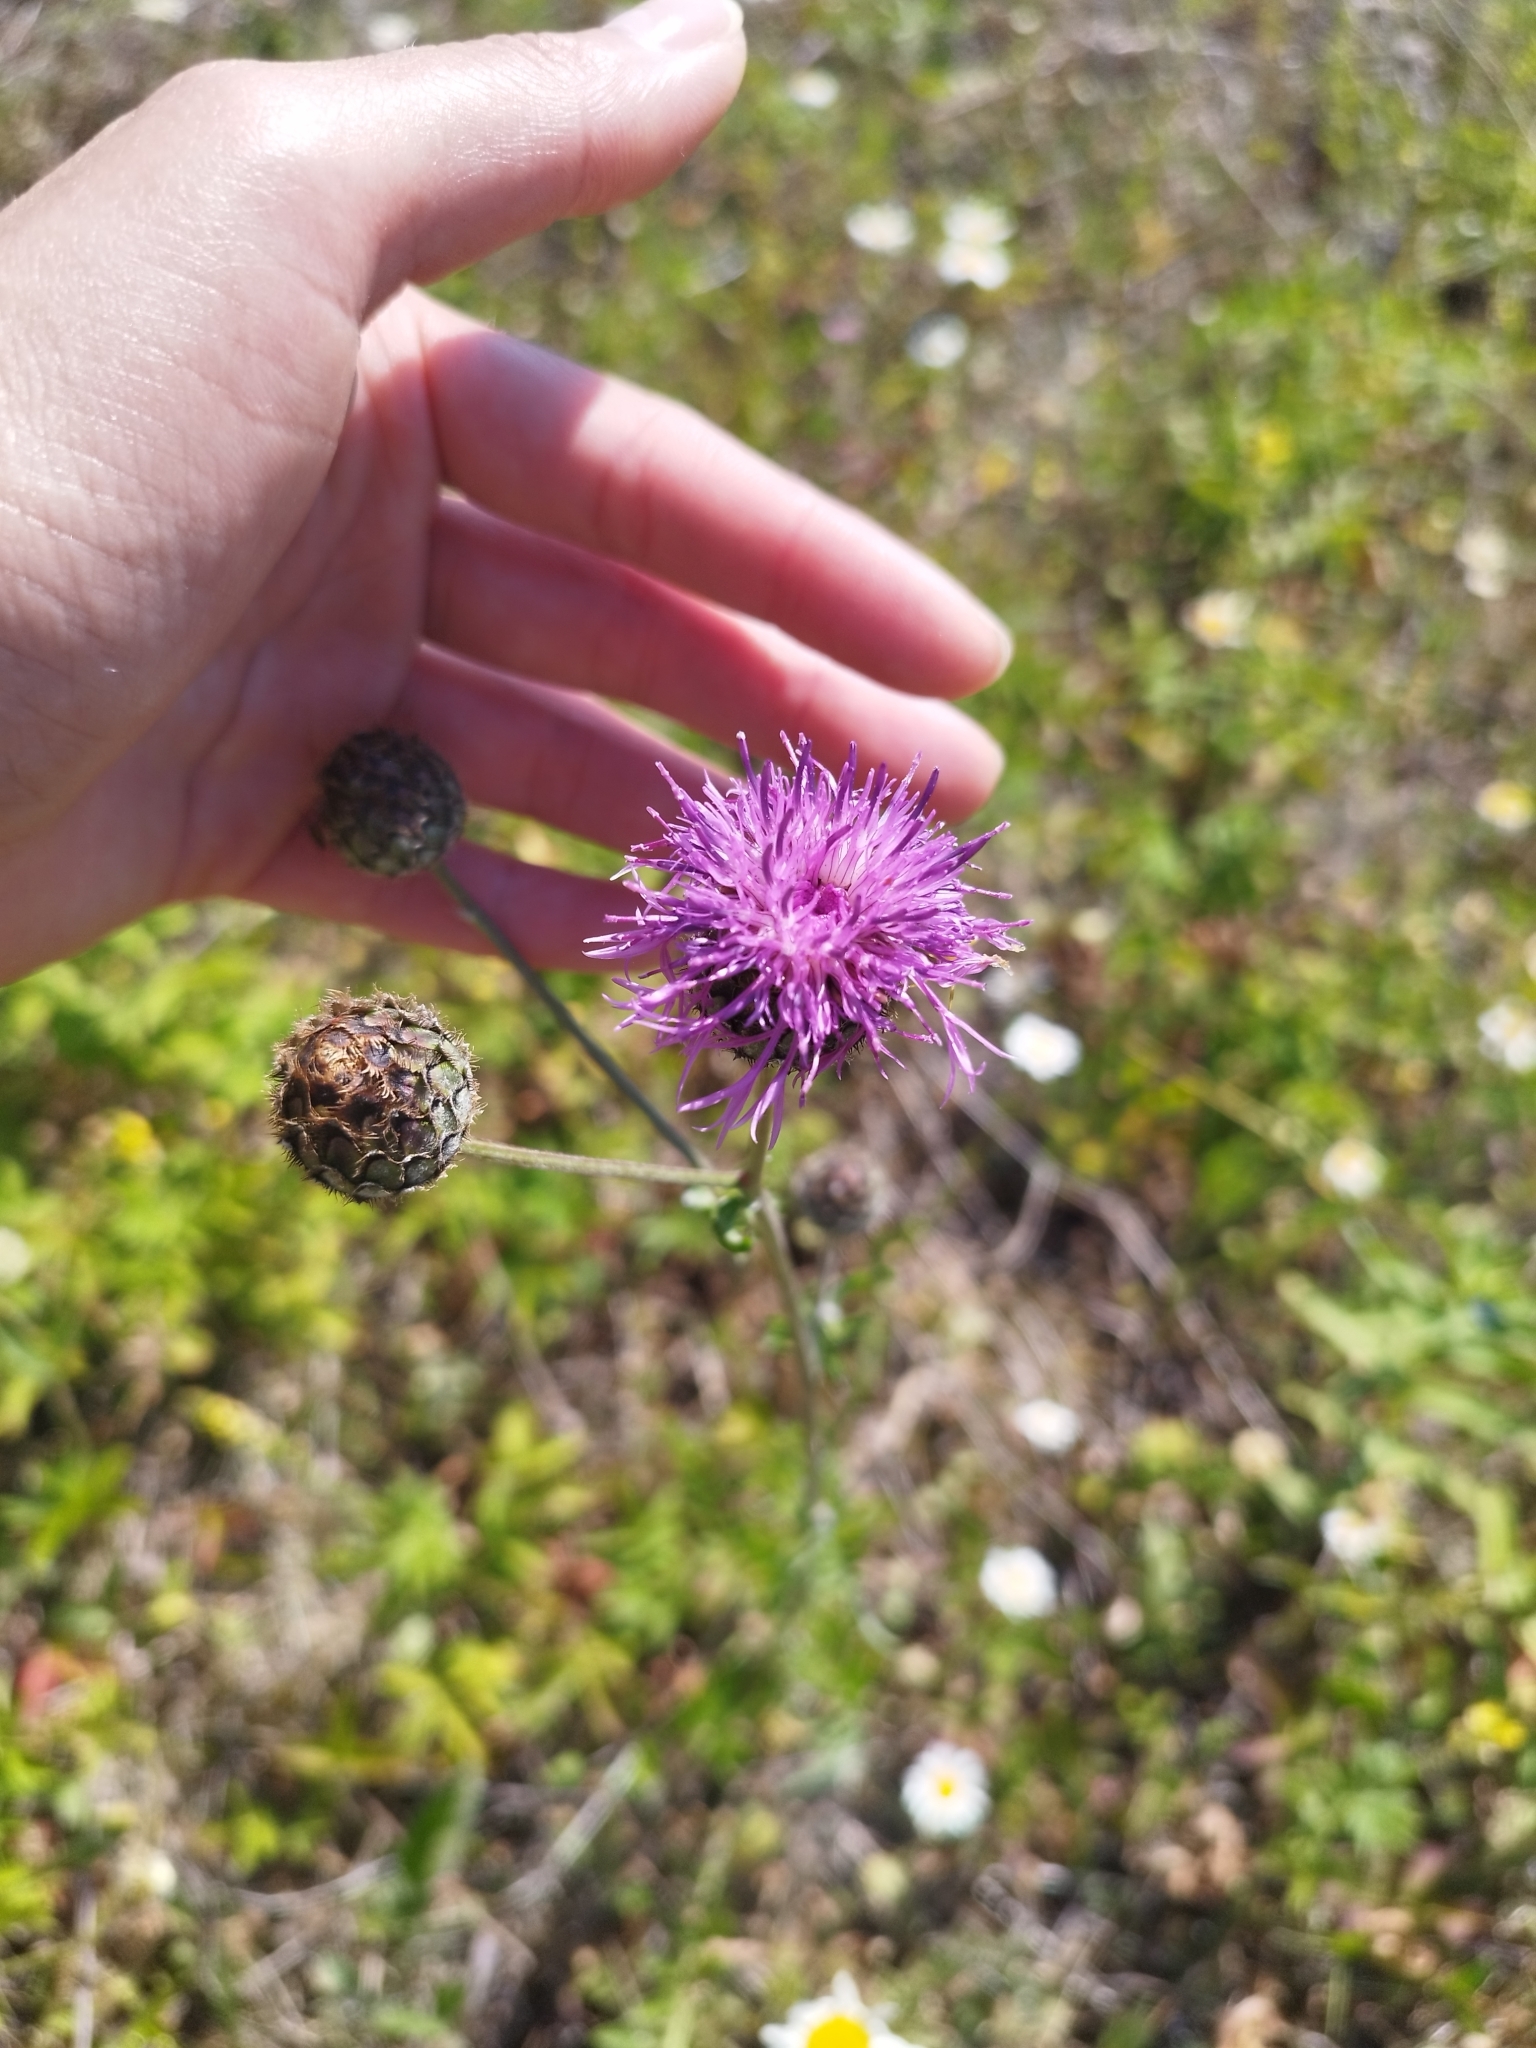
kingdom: Plantae
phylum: Tracheophyta
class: Magnoliopsida
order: Asterales
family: Asteraceae
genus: Centaurea
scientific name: Centaurea scabiosa
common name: Greater knapweed
